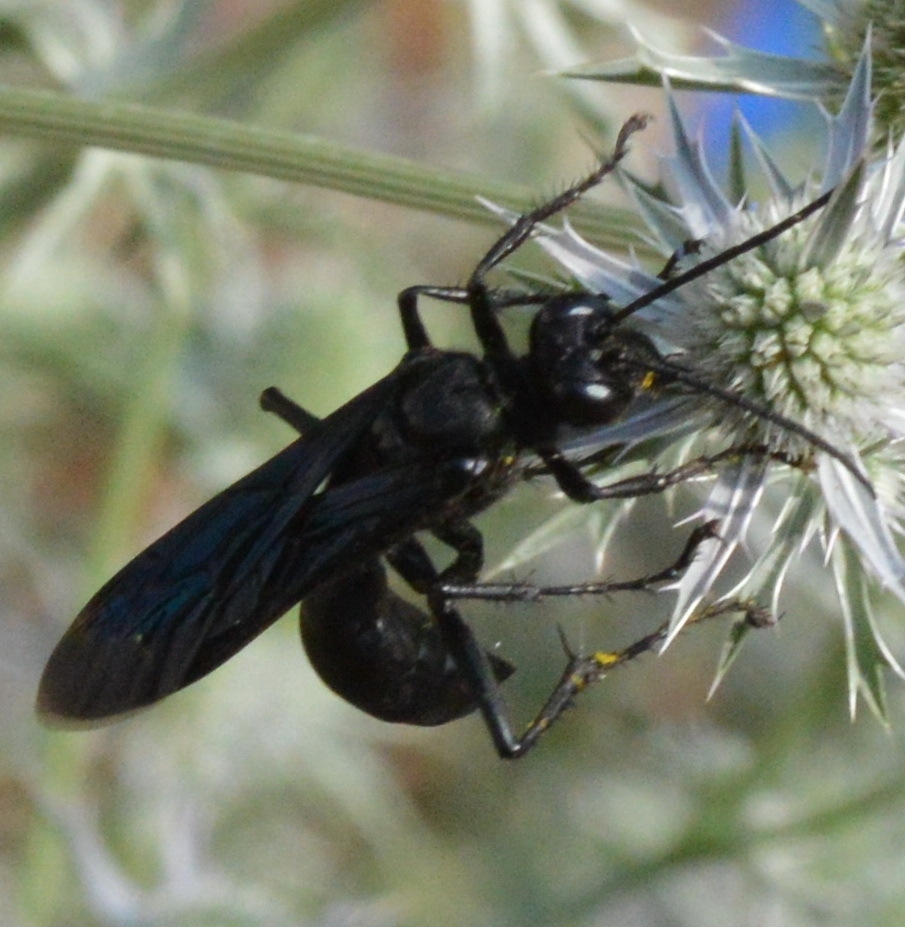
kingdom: Animalia
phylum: Arthropoda
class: Insecta
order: Hymenoptera
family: Sphecidae
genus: Sphex
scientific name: Sphex pensylvanicus
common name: Great black digger wasp
